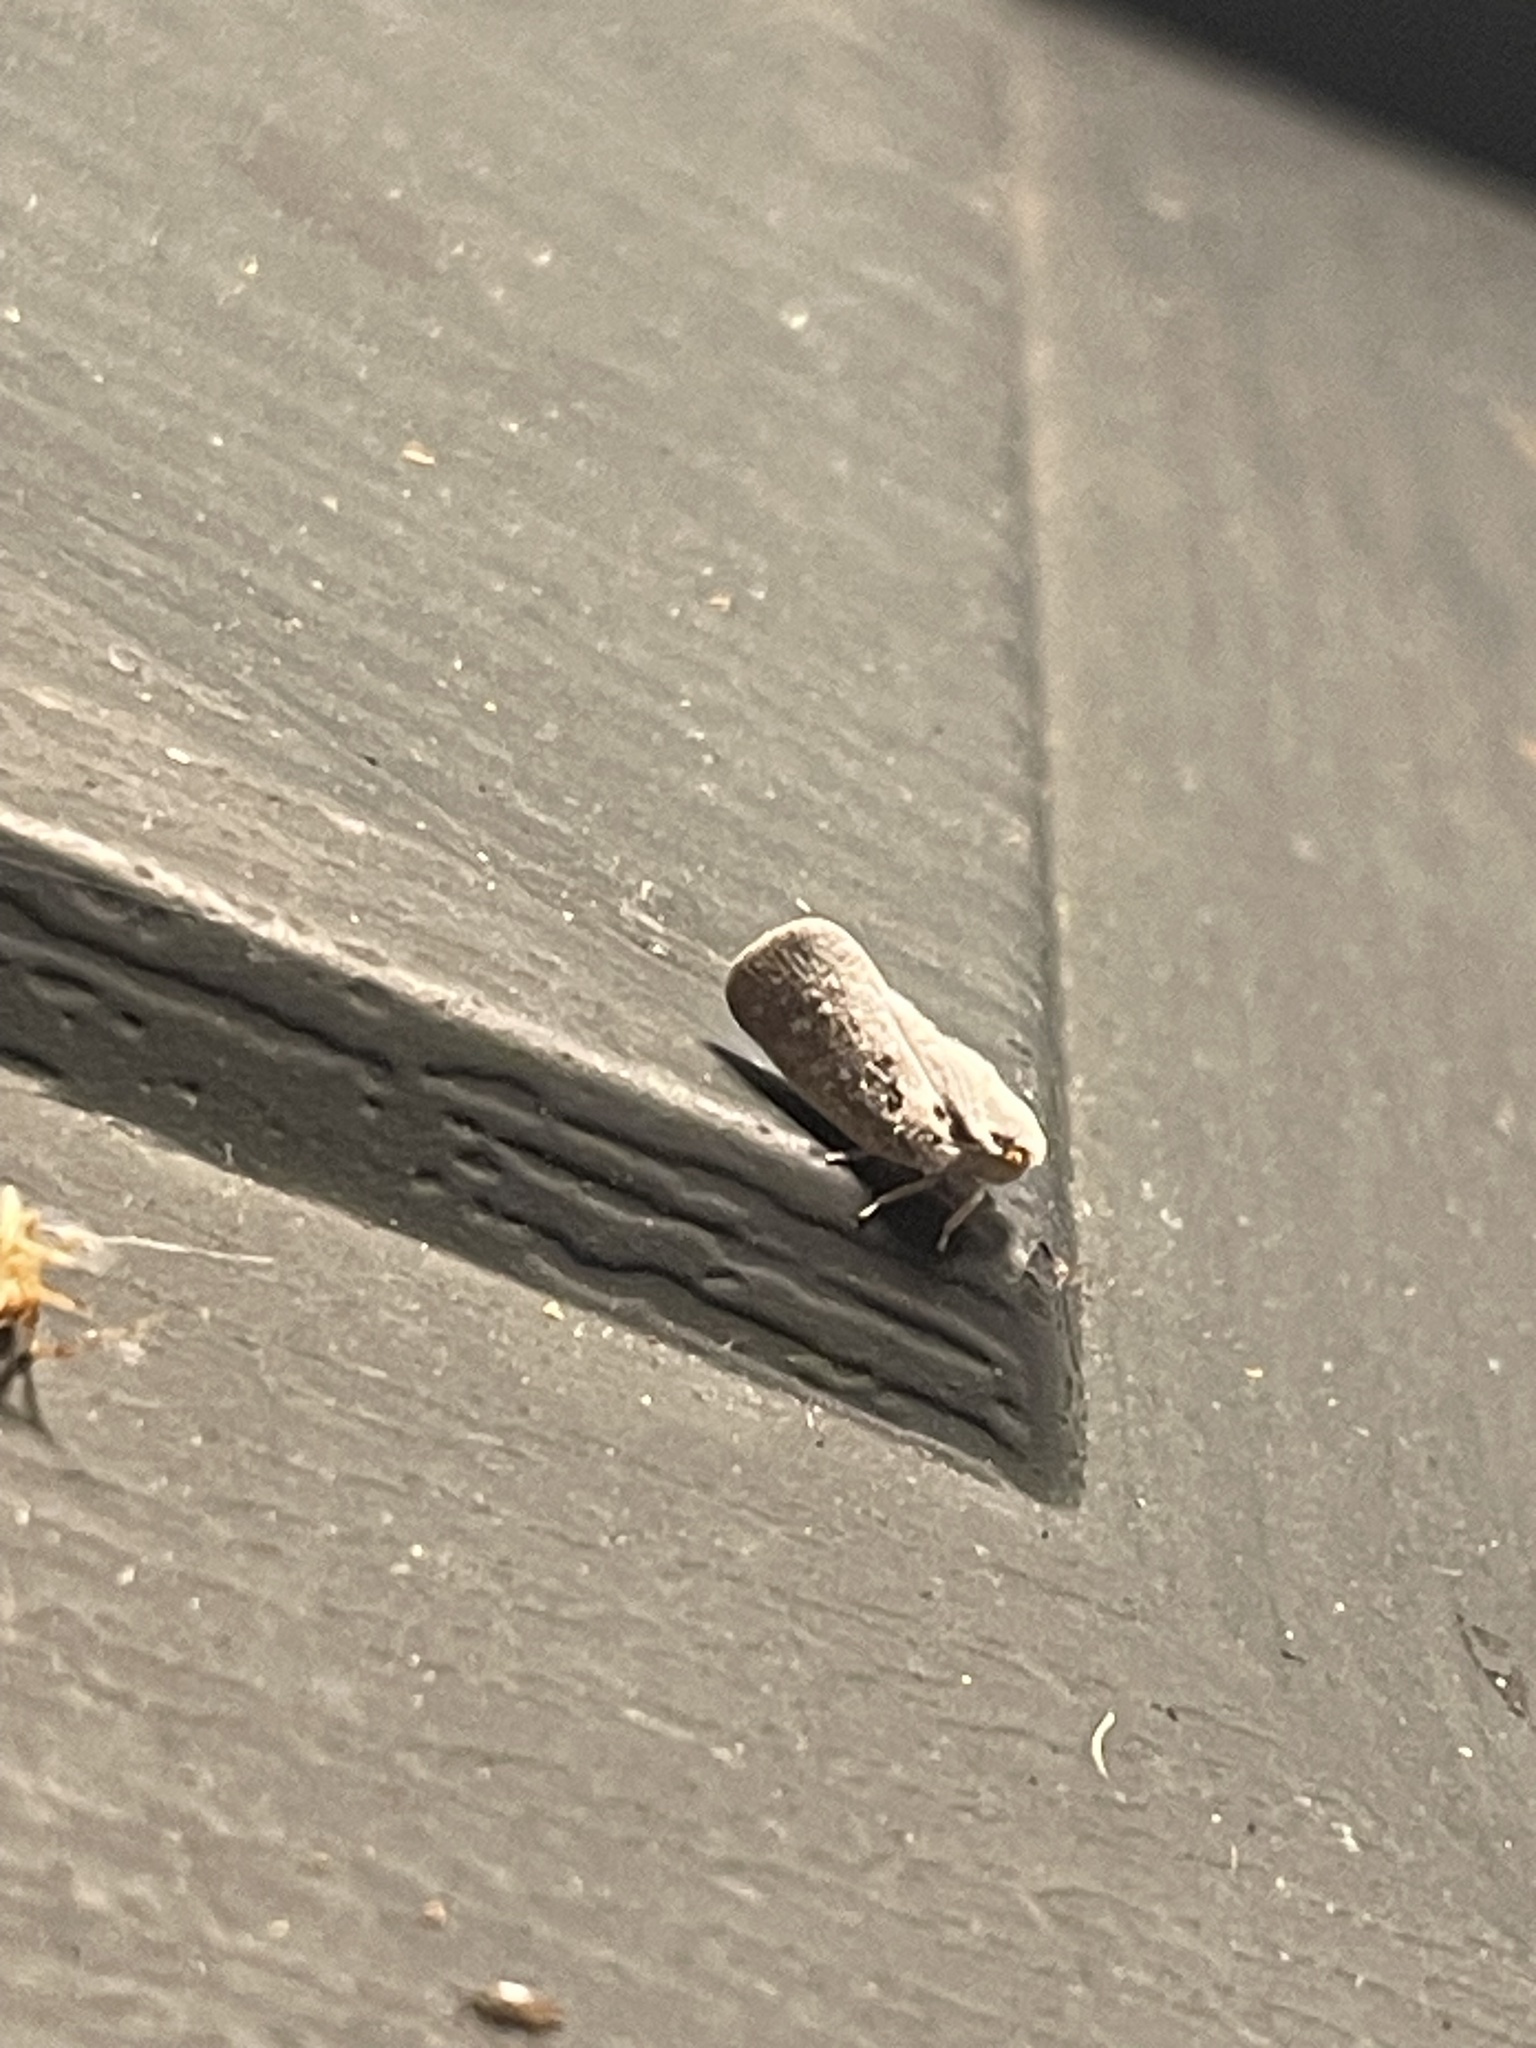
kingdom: Animalia
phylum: Arthropoda
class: Insecta
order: Hemiptera
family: Flatidae
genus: Metcalfa
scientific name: Metcalfa pruinosa
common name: Citrus flatid planthopper
